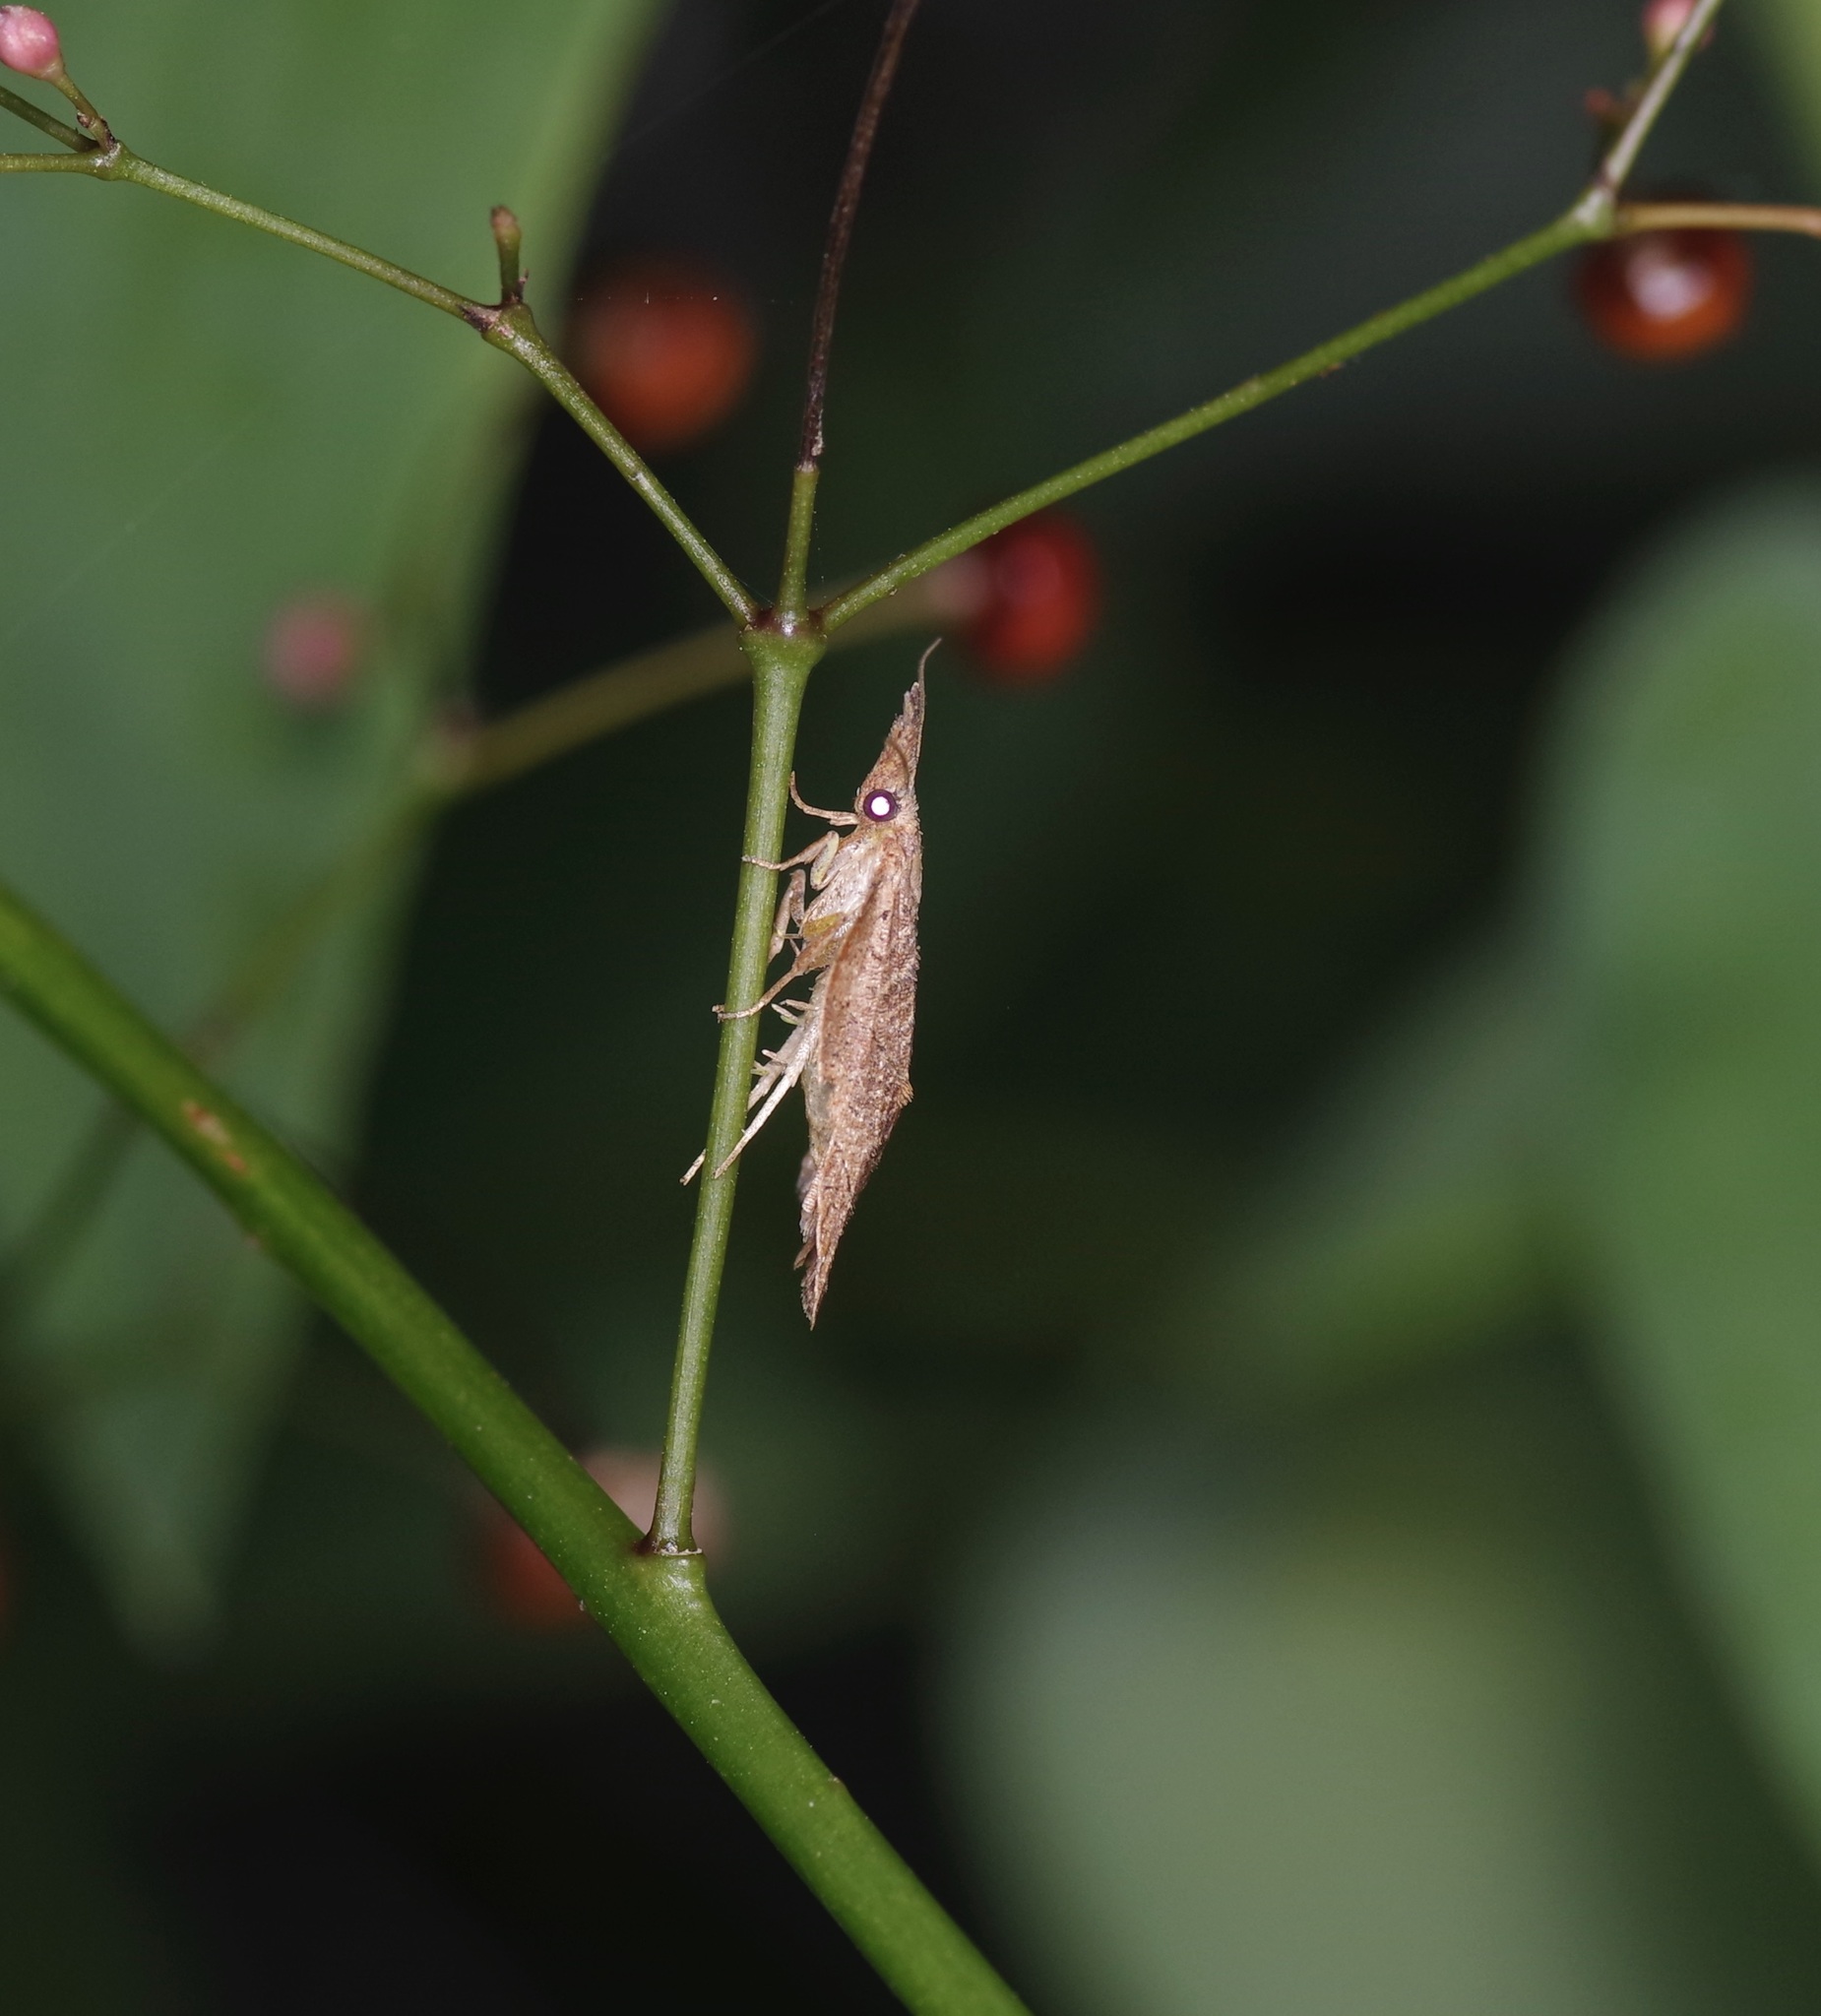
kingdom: Animalia
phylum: Arthropoda
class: Insecta
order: Lepidoptera
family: Tortricidae
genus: Platynota
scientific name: Platynota rostrana
